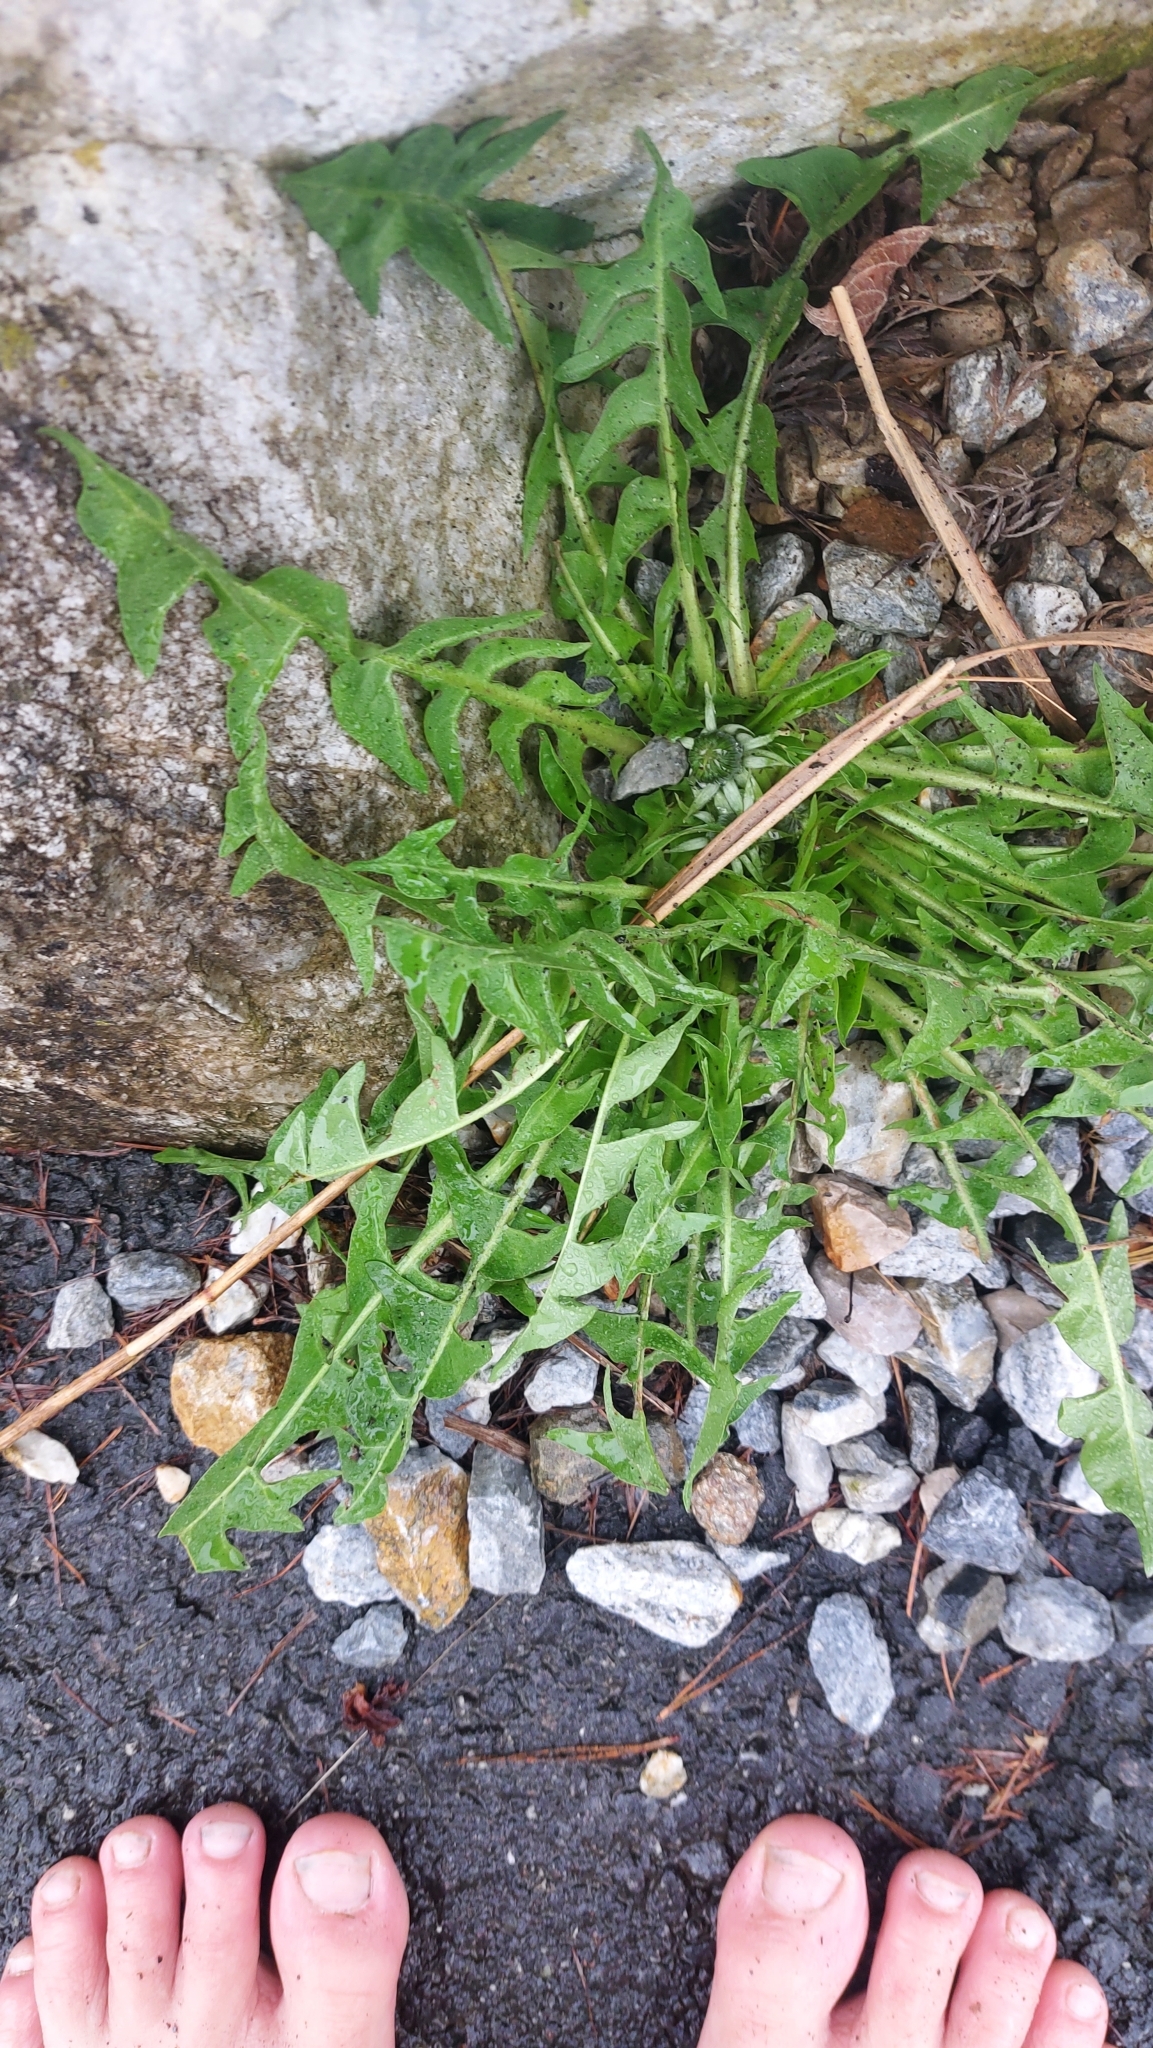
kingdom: Plantae
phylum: Tracheophyta
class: Magnoliopsida
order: Asterales
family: Asteraceae
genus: Taraxacum
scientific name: Taraxacum
